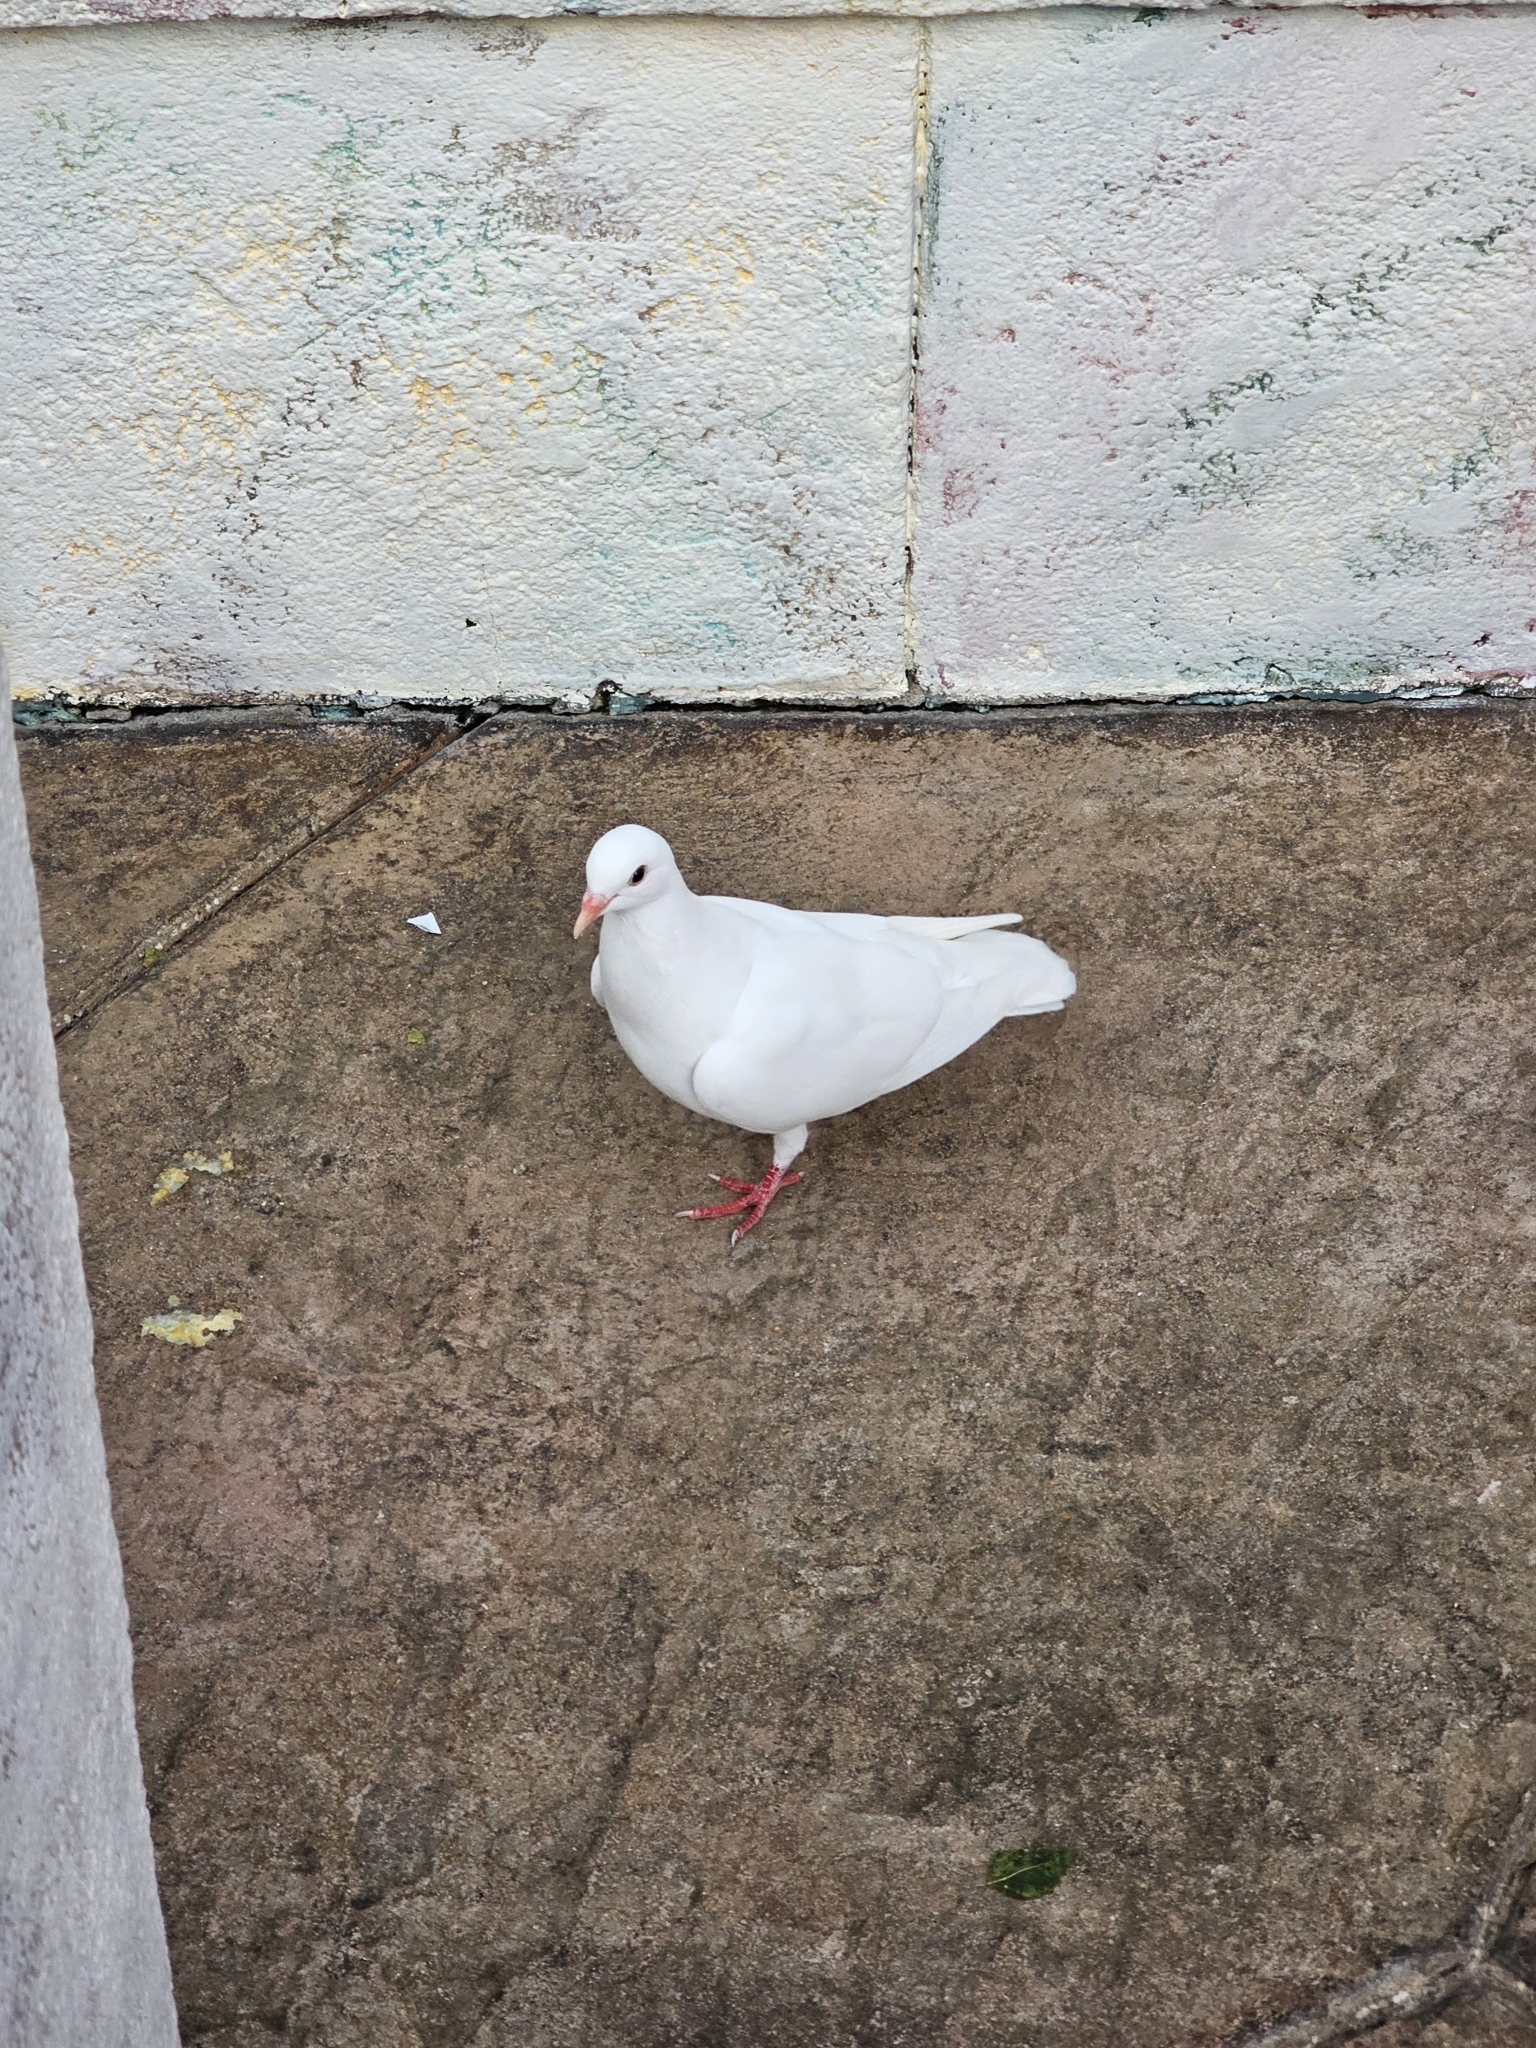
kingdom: Animalia
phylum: Chordata
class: Aves
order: Columbiformes
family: Columbidae
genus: Columba
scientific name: Columba livia
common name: Rock pigeon
